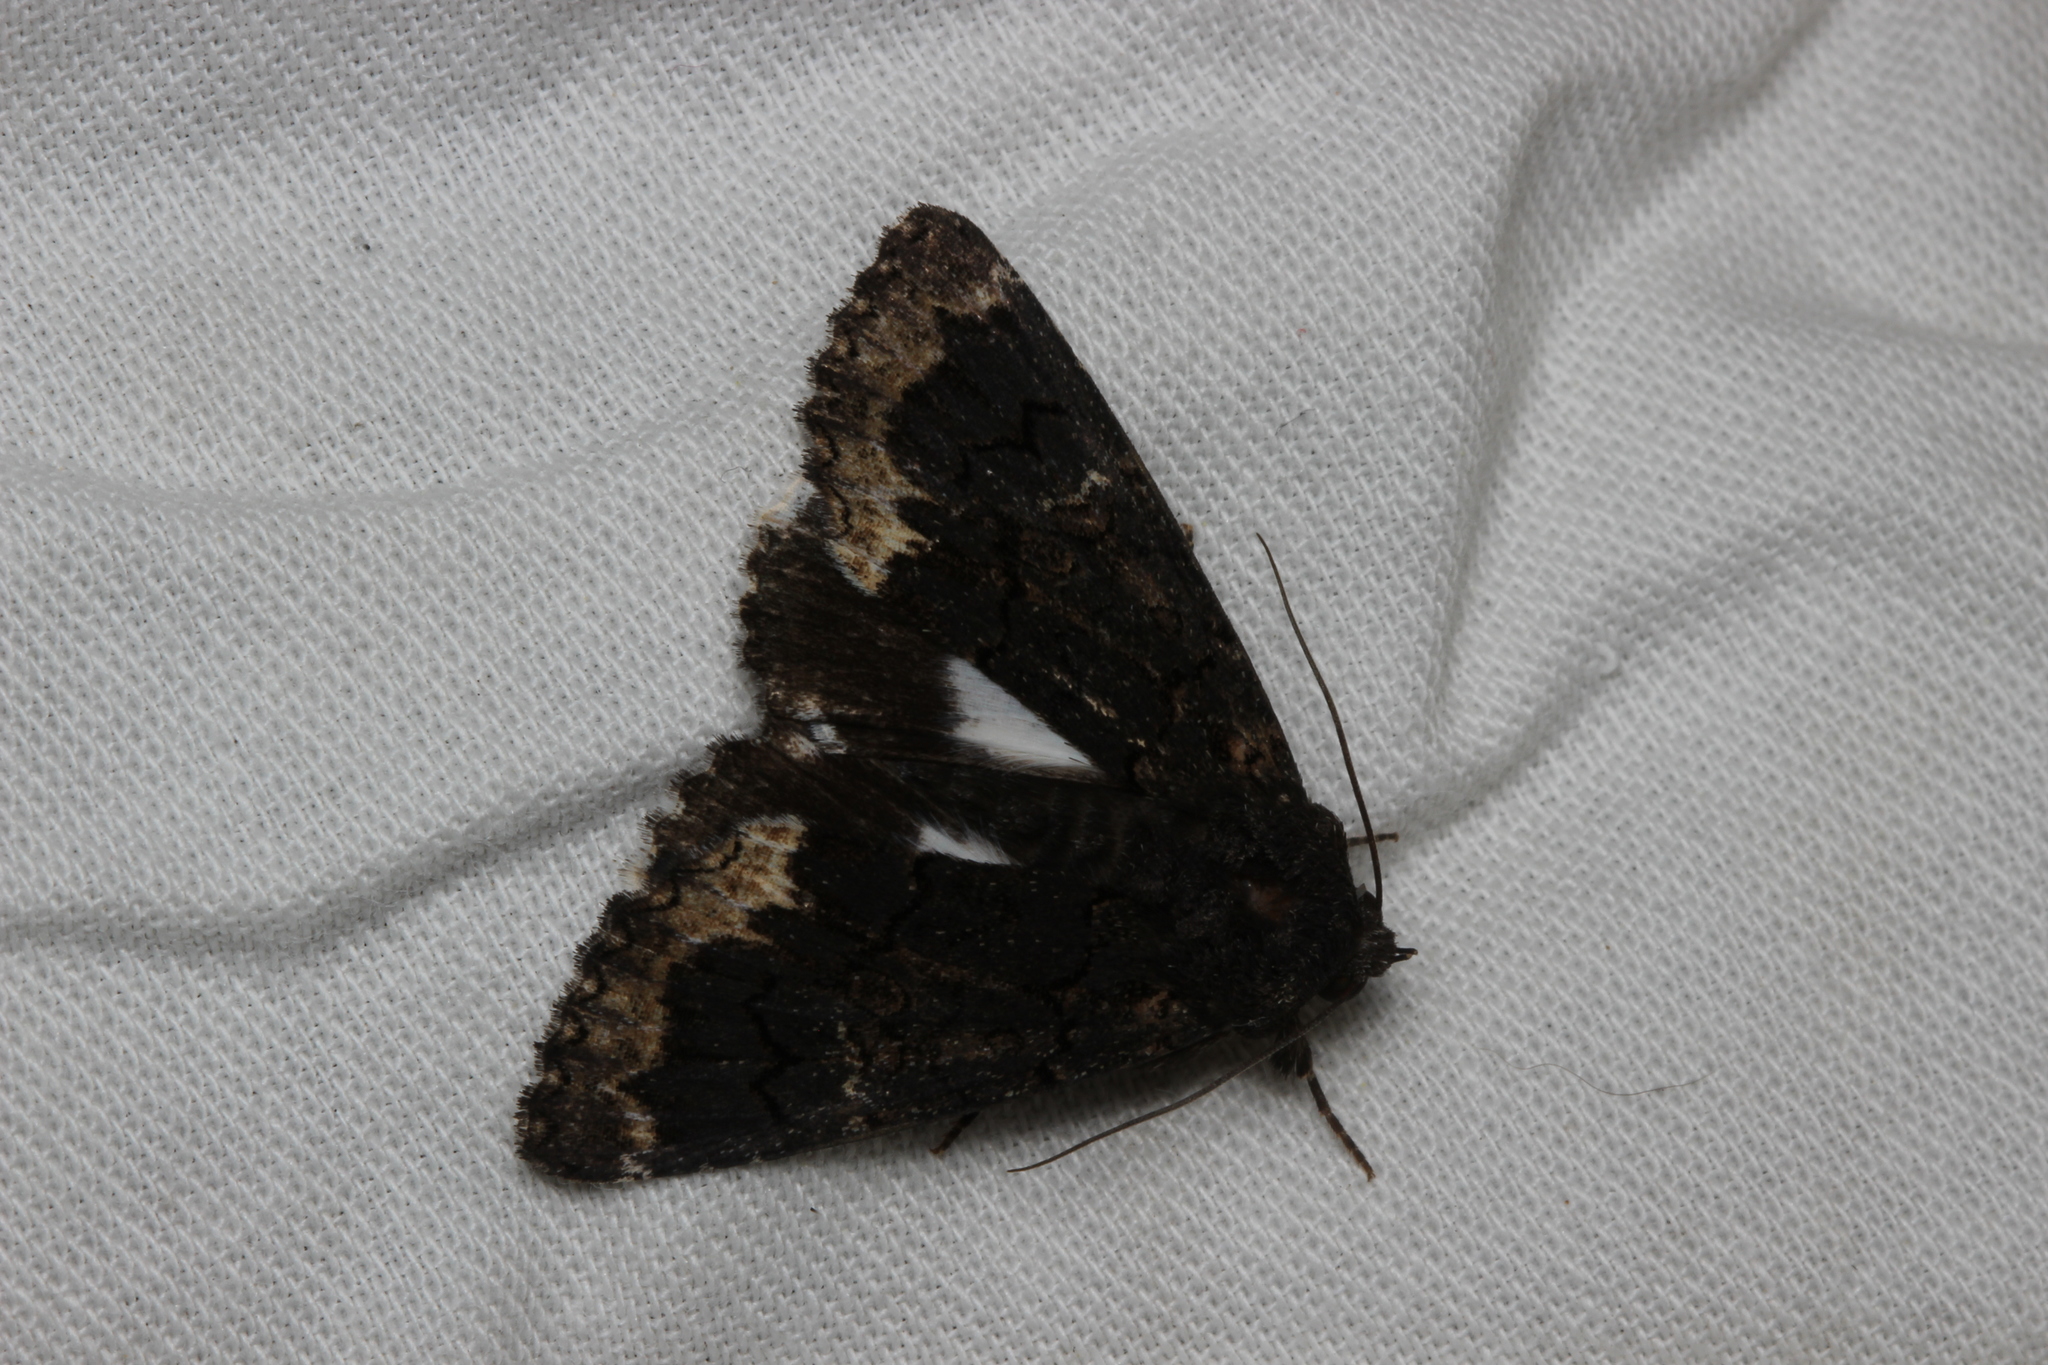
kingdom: Animalia
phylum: Arthropoda
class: Insecta
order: Lepidoptera
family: Erebidae
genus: Catephia
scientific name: Catephia alchymista
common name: Alchymist
